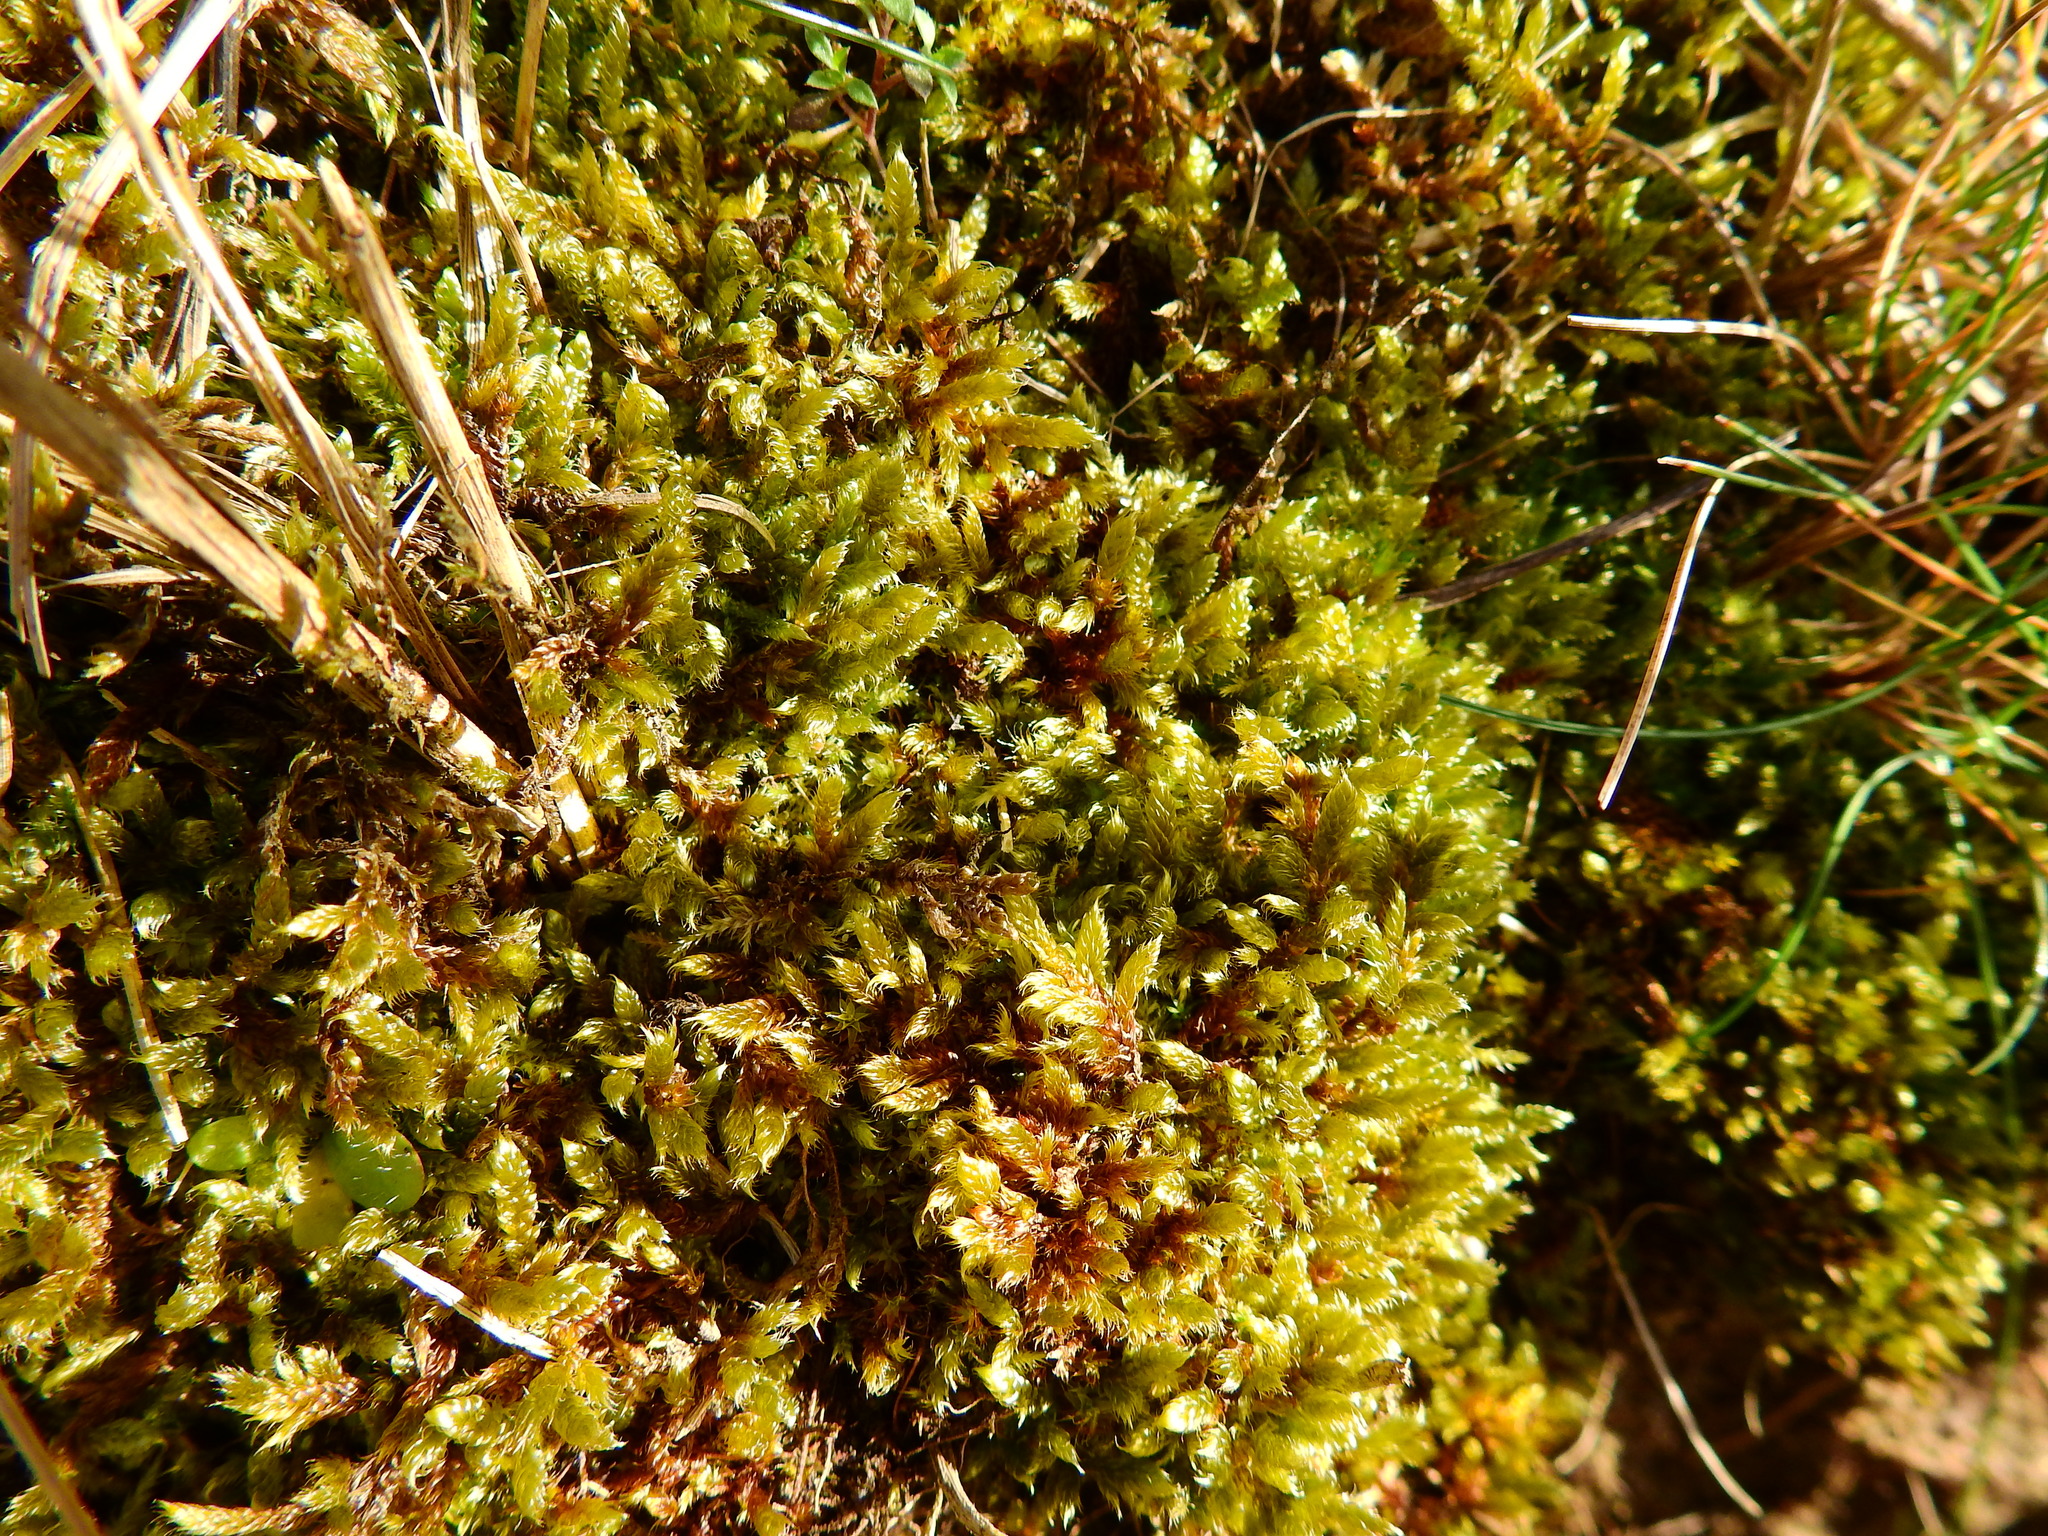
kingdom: Plantae
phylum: Bryophyta
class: Bryopsida
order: Hypnales
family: Hypnaceae
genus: Hypnum
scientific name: Hypnum cupressiforme
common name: Cypress-leaved plait-moss
